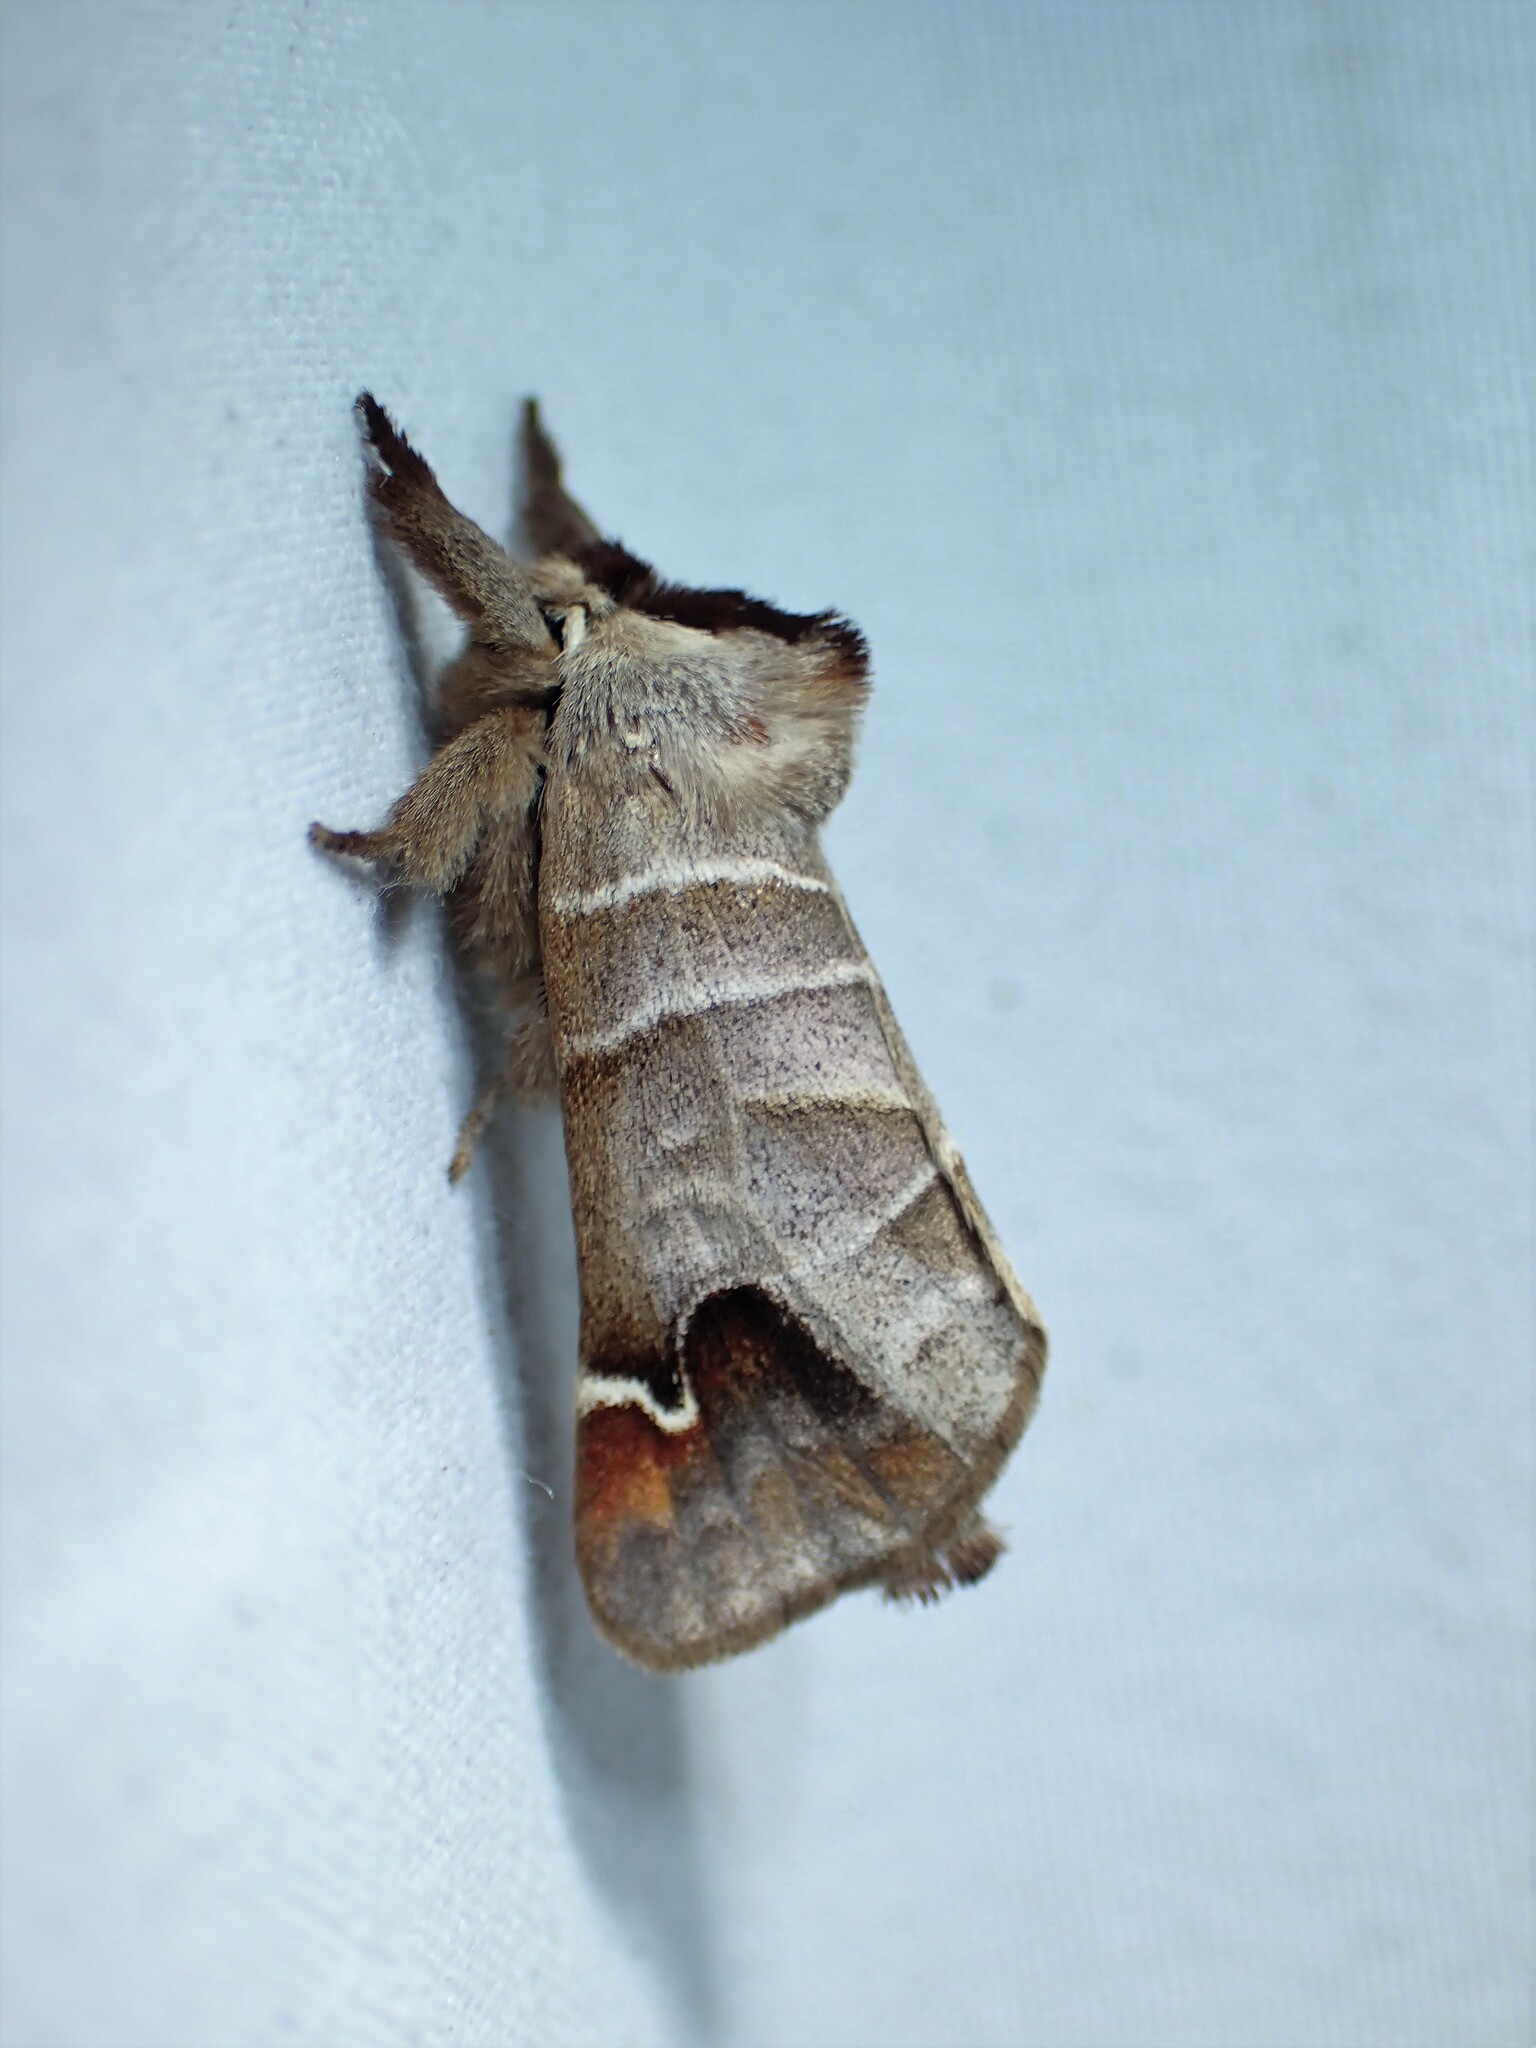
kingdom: Animalia
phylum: Arthropoda
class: Insecta
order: Lepidoptera
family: Notodontidae
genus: Clostera
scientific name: Clostera albosigma
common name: Sigmoid prominent
